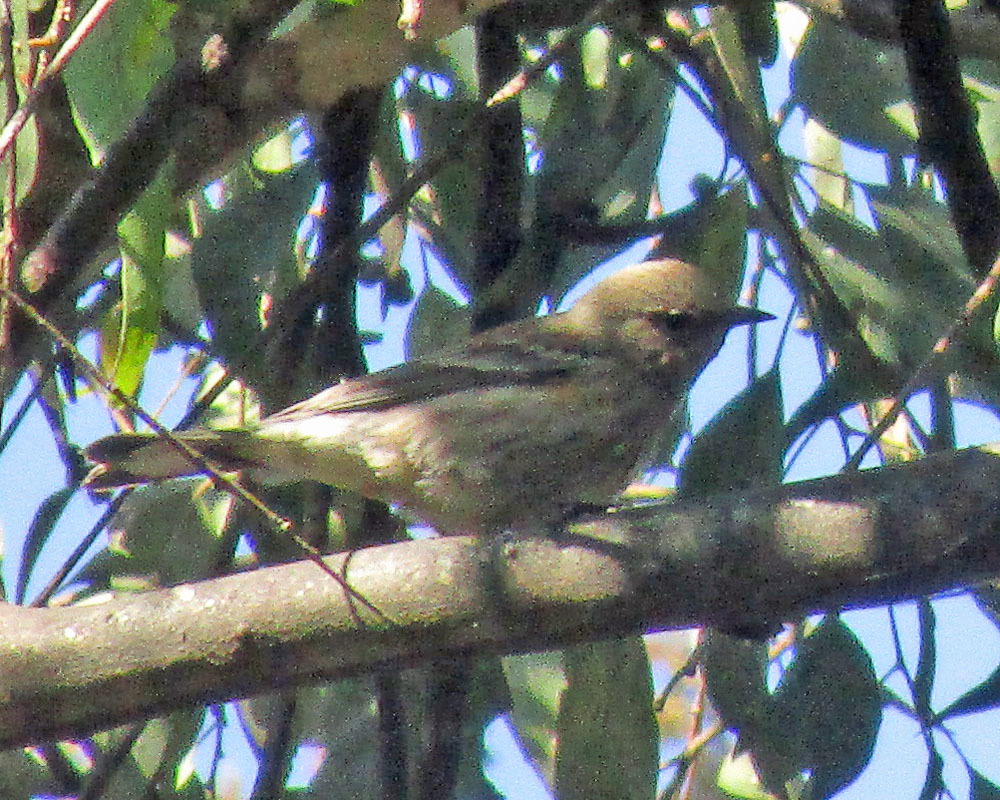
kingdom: Animalia
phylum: Chordata
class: Aves
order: Passeriformes
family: Parulidae
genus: Setophaga
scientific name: Setophaga auduboni
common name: Audubon's warbler
